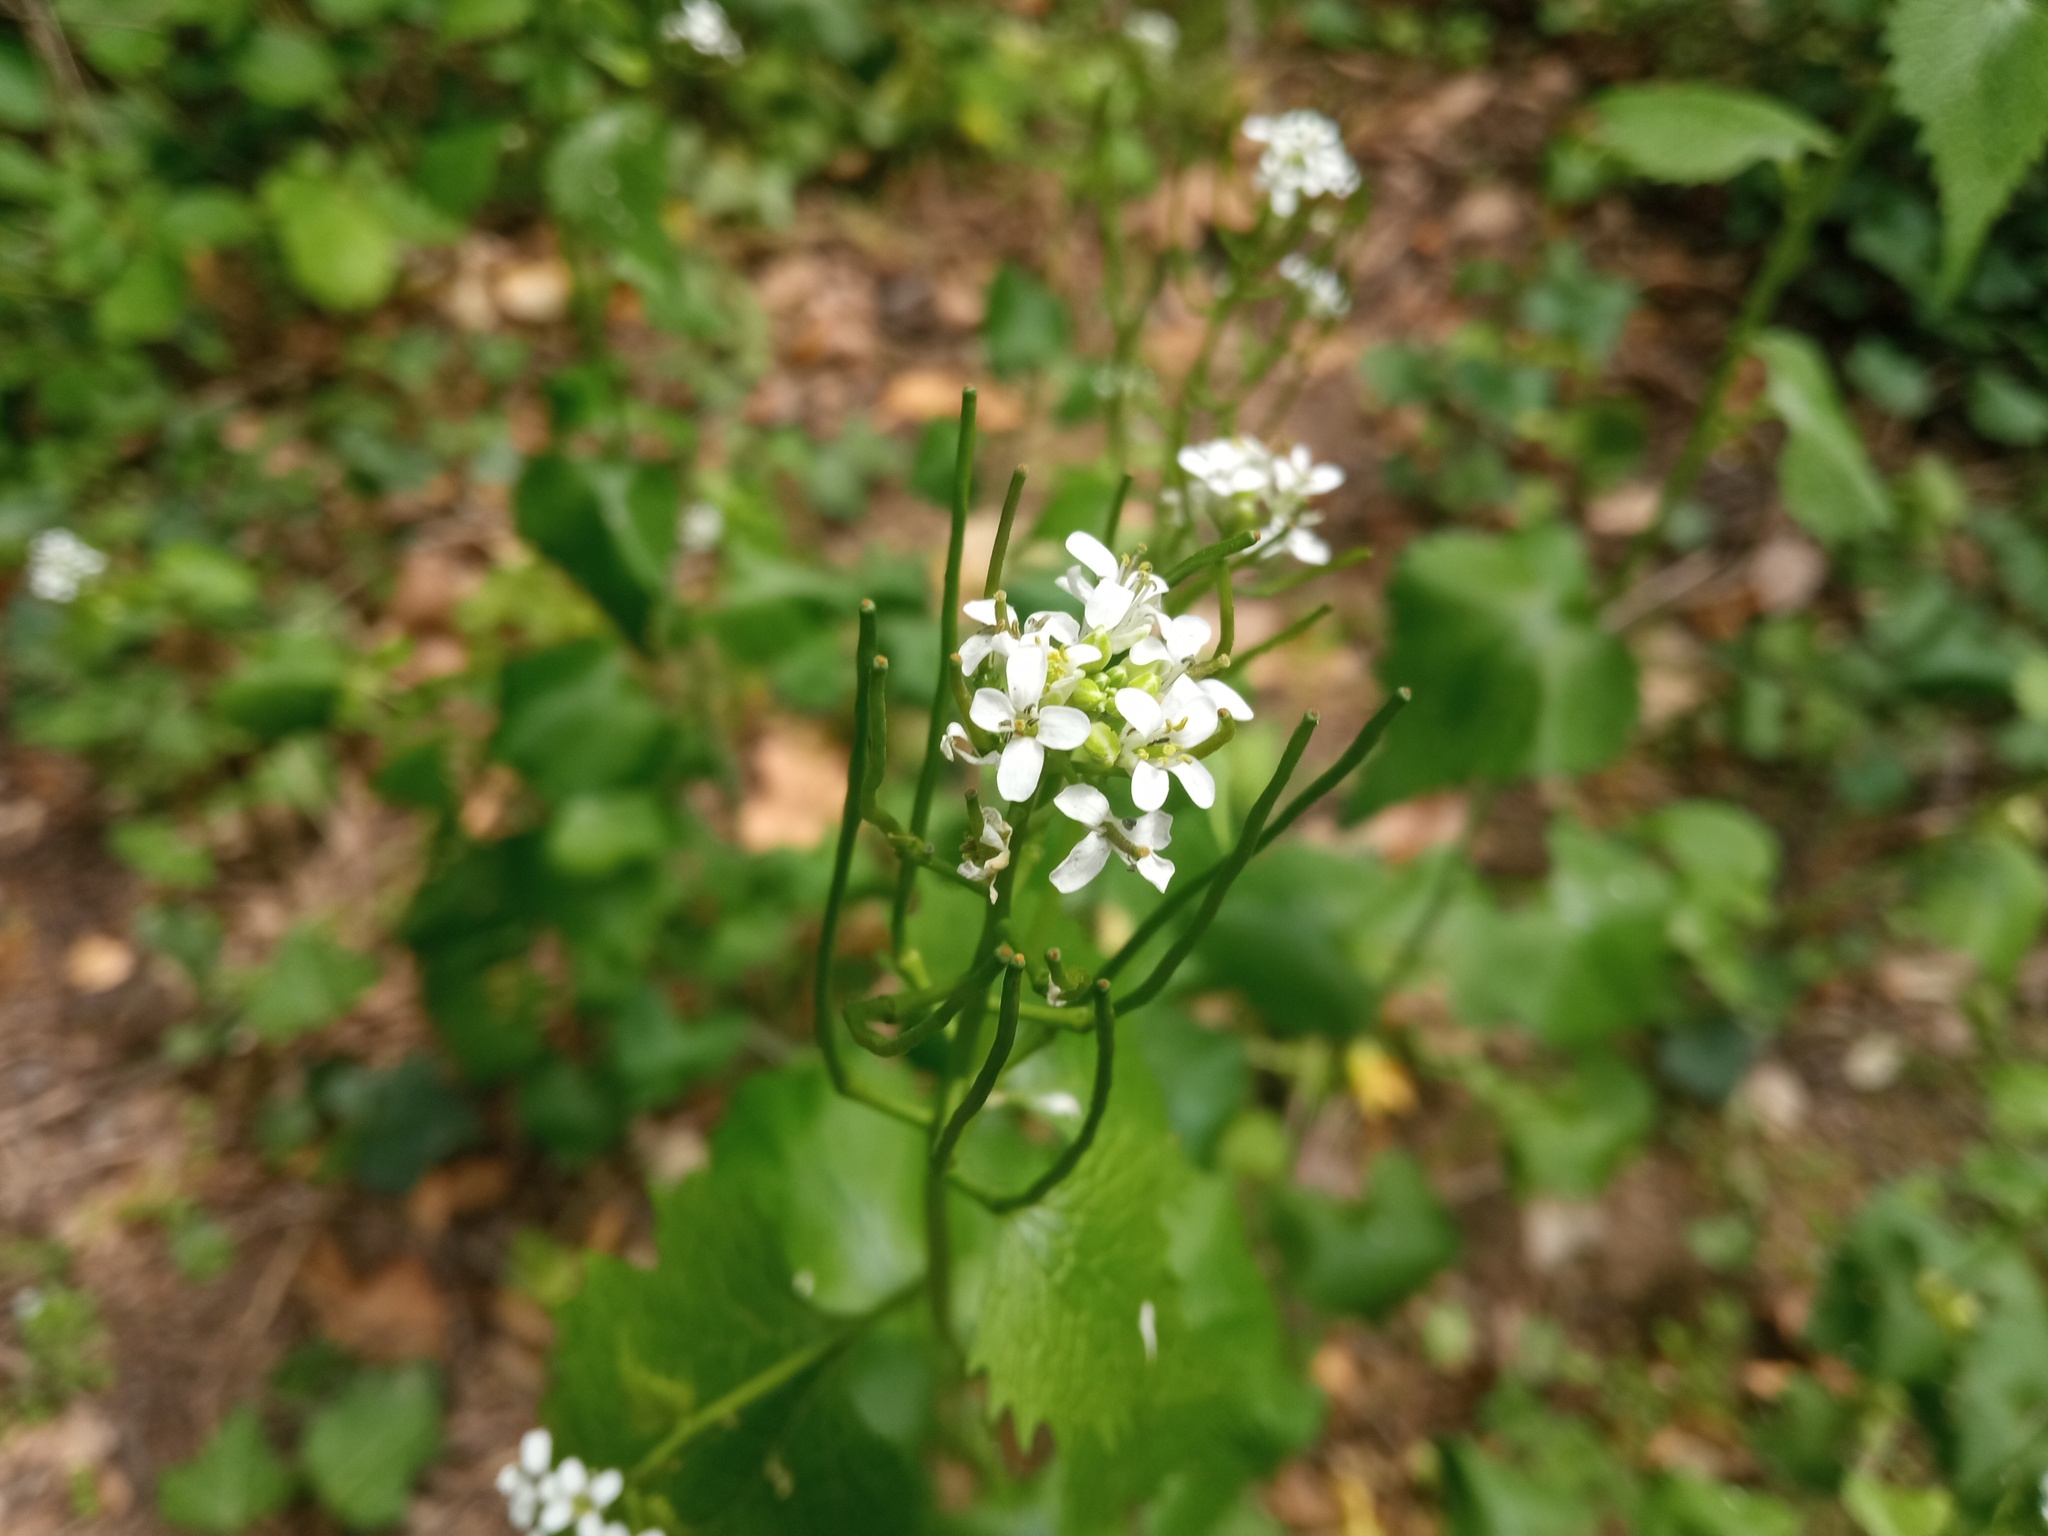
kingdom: Plantae
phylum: Tracheophyta
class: Magnoliopsida
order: Brassicales
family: Brassicaceae
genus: Alliaria
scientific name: Alliaria petiolata
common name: Garlic mustard
